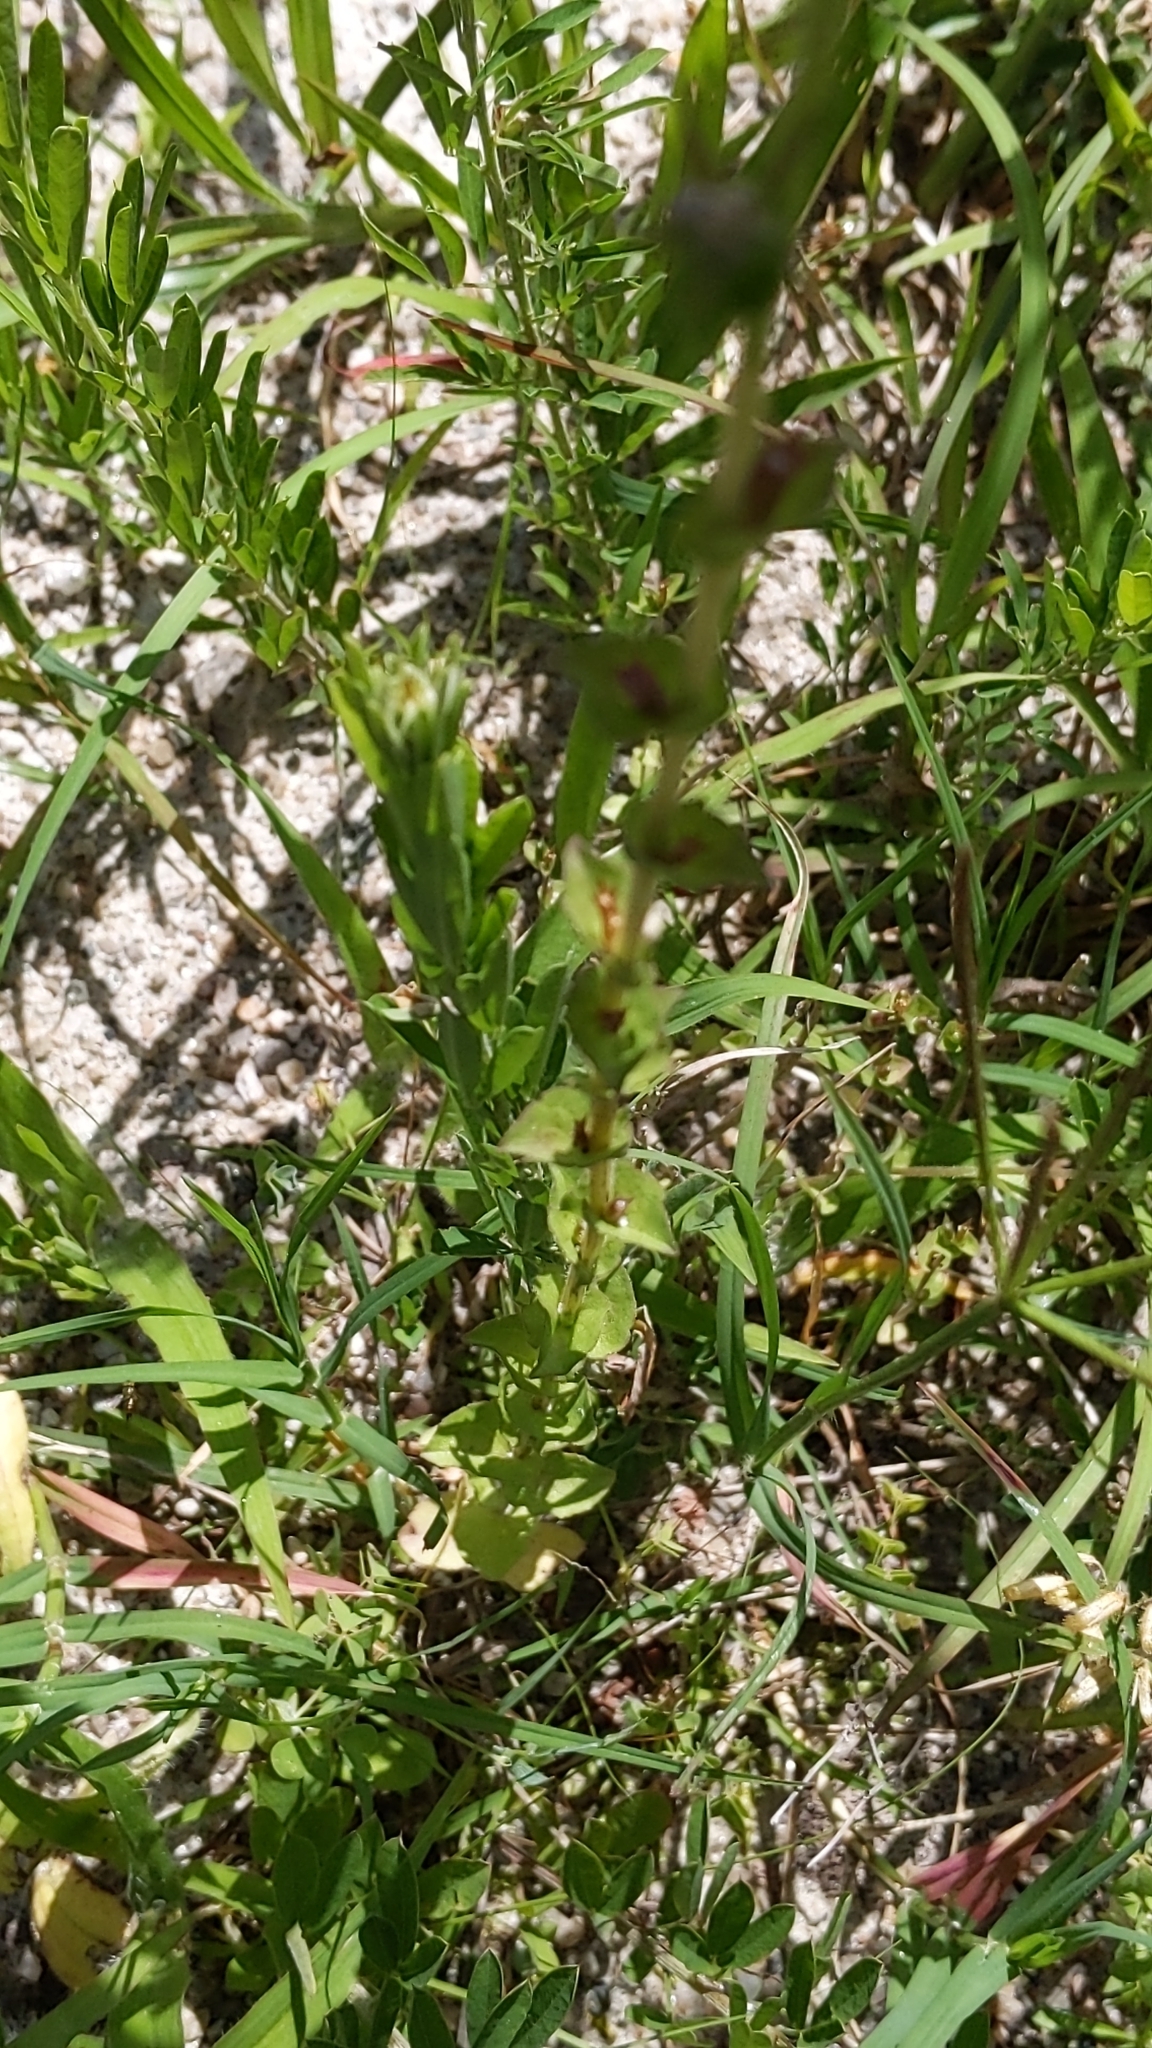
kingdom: Plantae
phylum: Tracheophyta
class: Magnoliopsida
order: Asterales
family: Campanulaceae
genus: Triodanis
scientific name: Triodanis perfoliata
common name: Clasping venus' looking-glass
